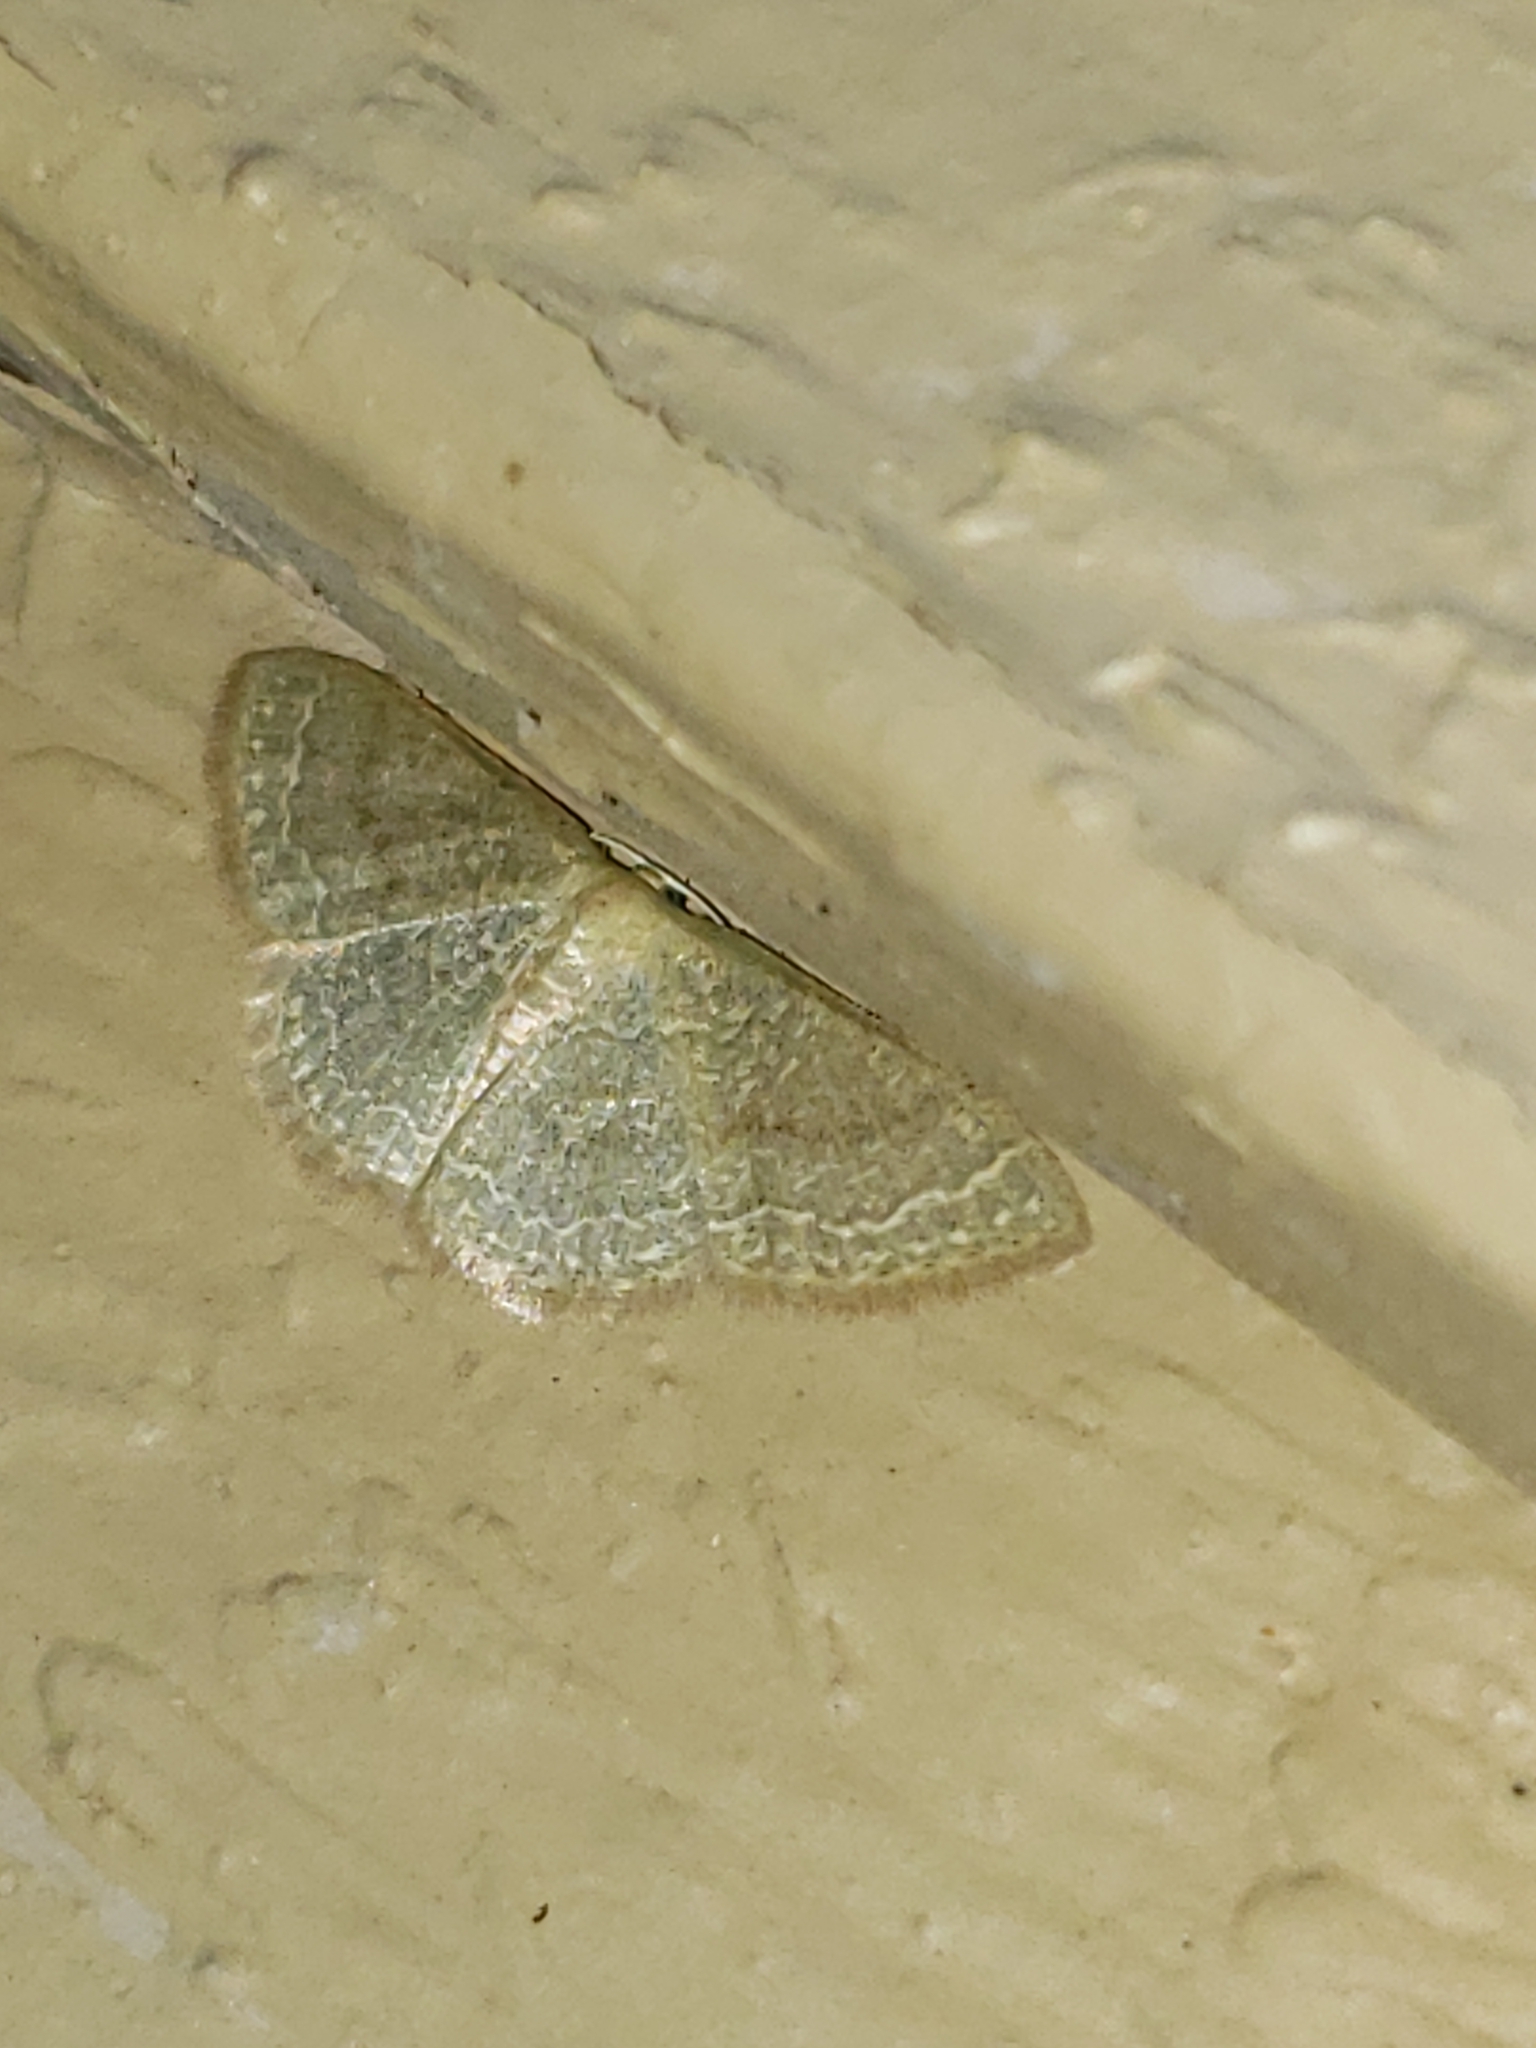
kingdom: Animalia
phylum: Arthropoda
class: Insecta
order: Lepidoptera
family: Geometridae
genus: Pleuroprucha
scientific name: Pleuroprucha insulsaria
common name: Common tan wave
